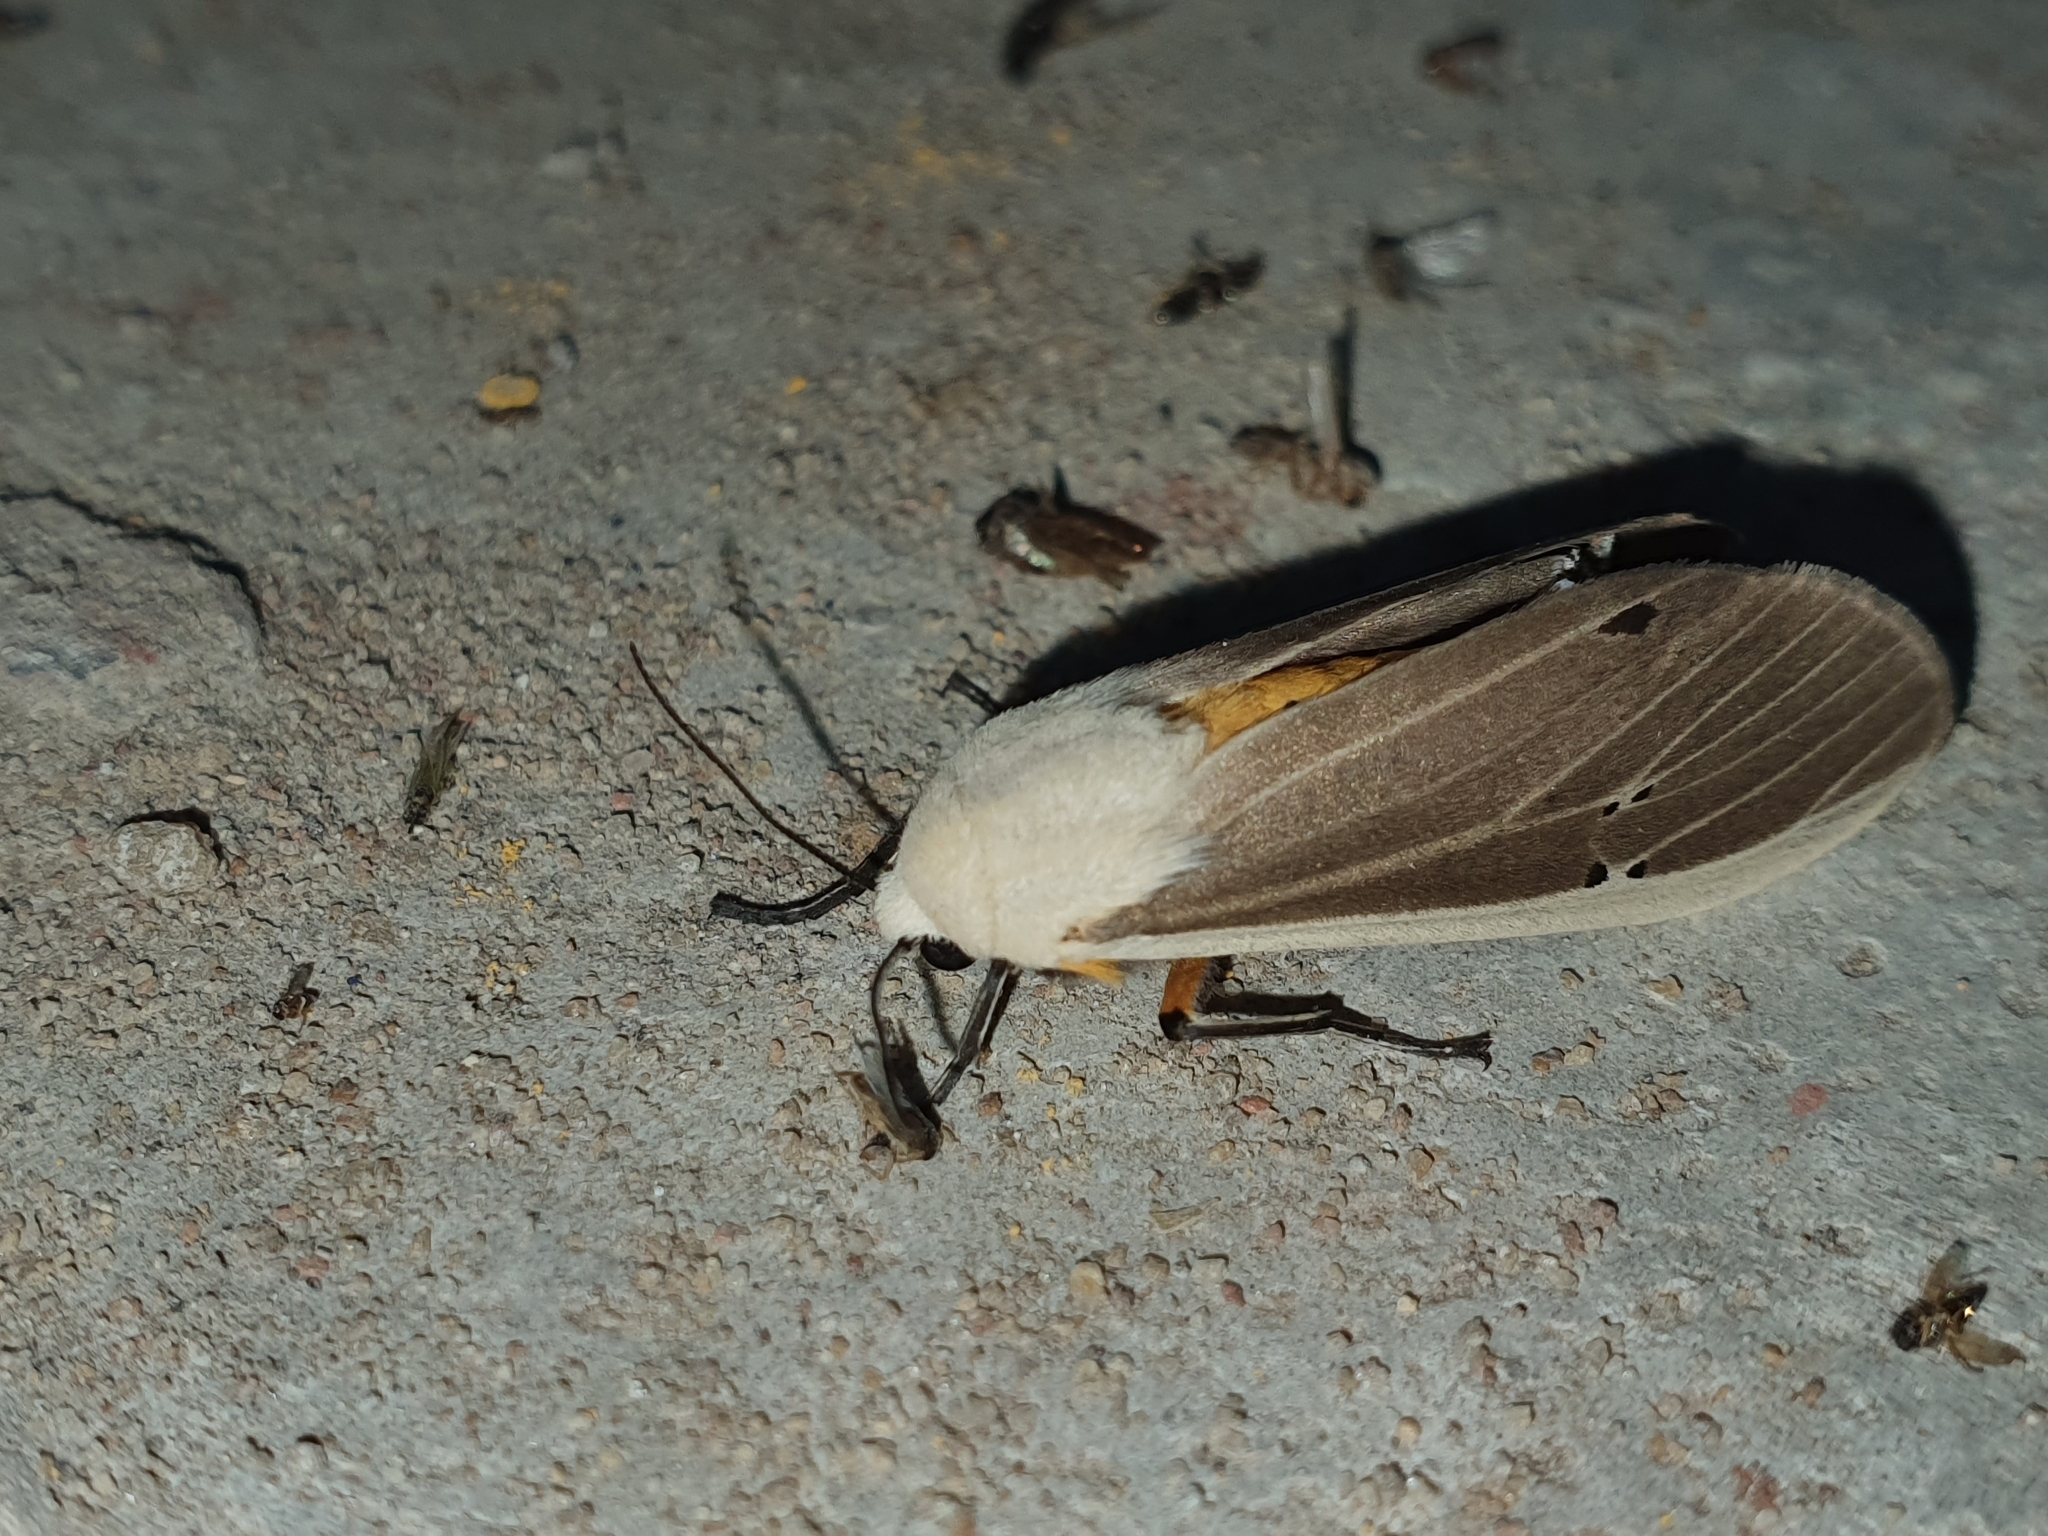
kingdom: Animalia
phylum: Arthropoda
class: Insecta
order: Lepidoptera
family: Erebidae
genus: Creatonotos
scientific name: Creatonotos transiens
